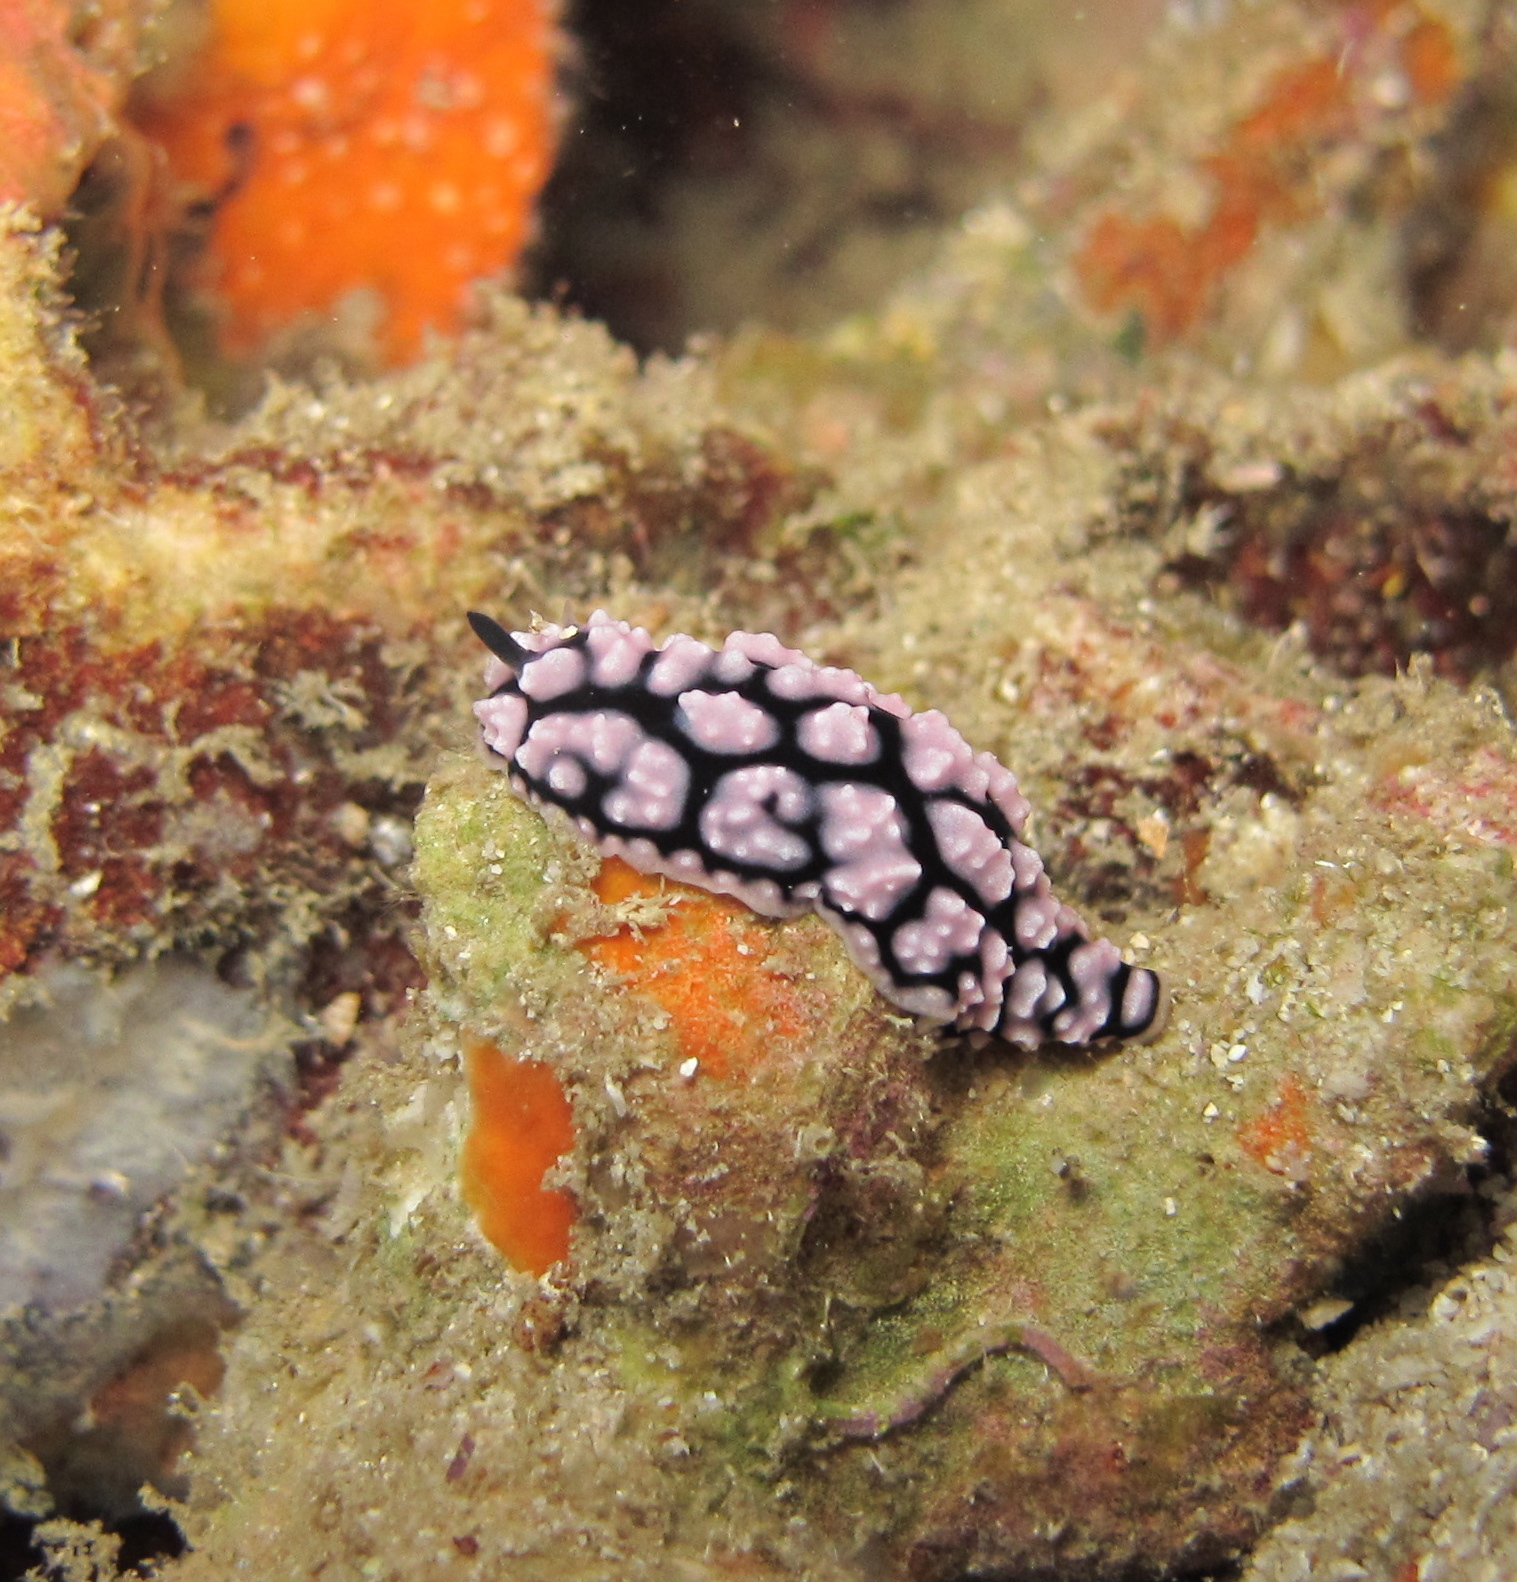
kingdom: Animalia
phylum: Mollusca
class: Gastropoda
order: Nudibranchia
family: Phyllidiidae
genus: Phyllidiella
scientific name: Phyllidiella pustulosa
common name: Pustular phyllidia
